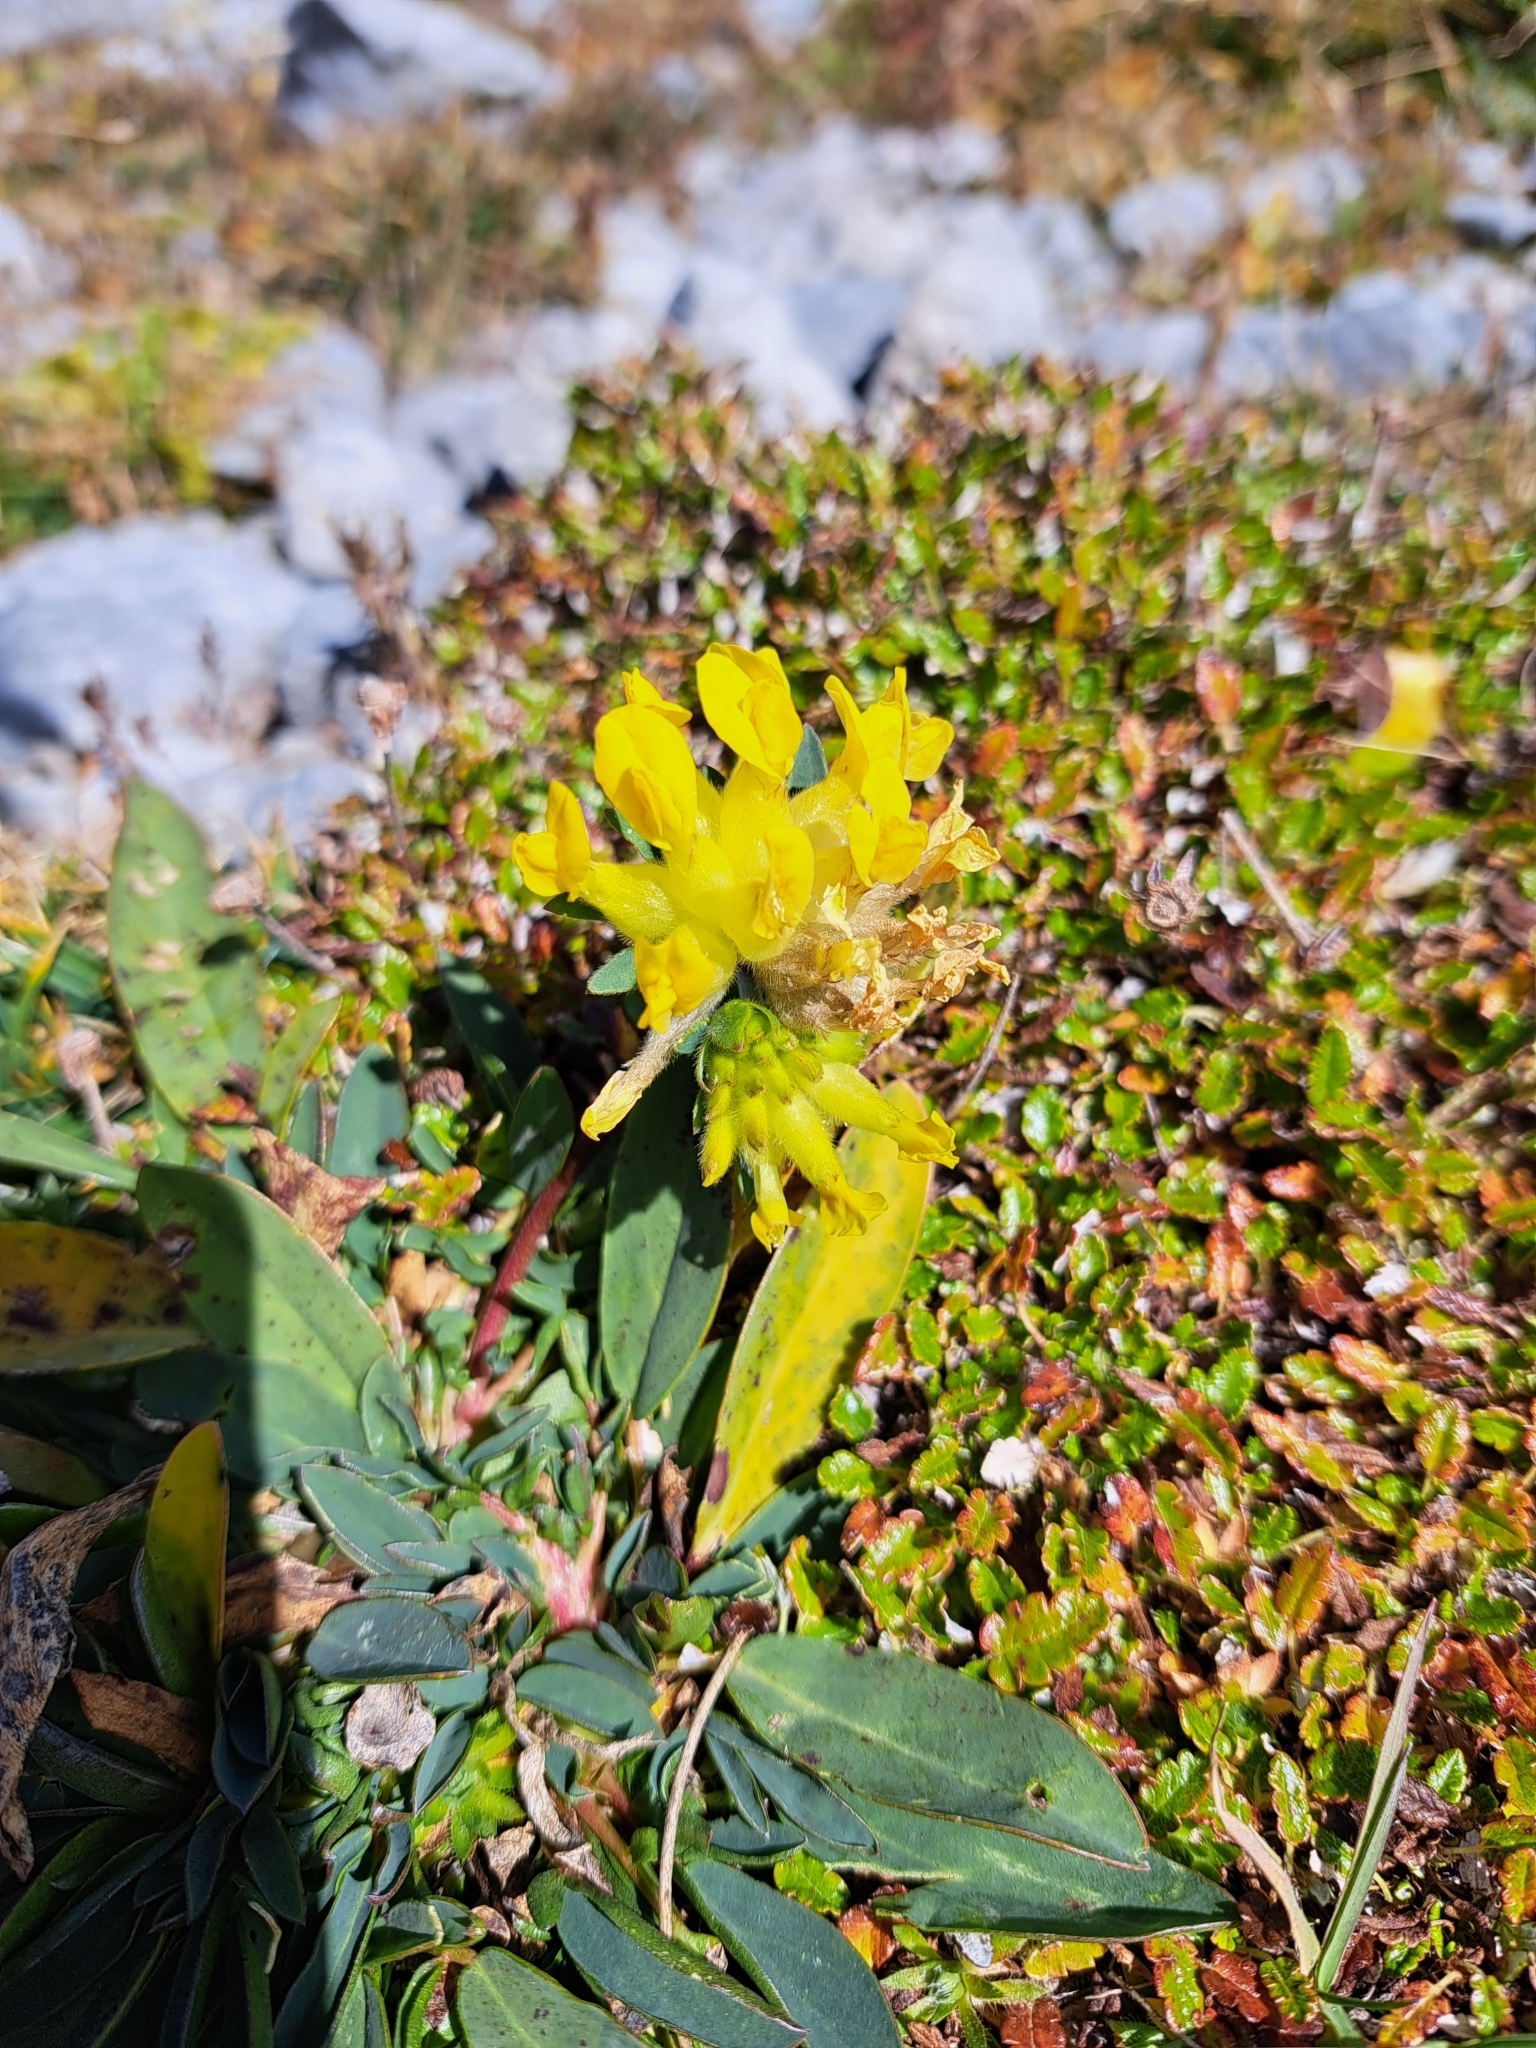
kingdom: Plantae
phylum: Tracheophyta
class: Magnoliopsida
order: Fabales
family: Fabaceae
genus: Anthyllis
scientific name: Anthyllis vulneraria
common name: Kidney vetch
